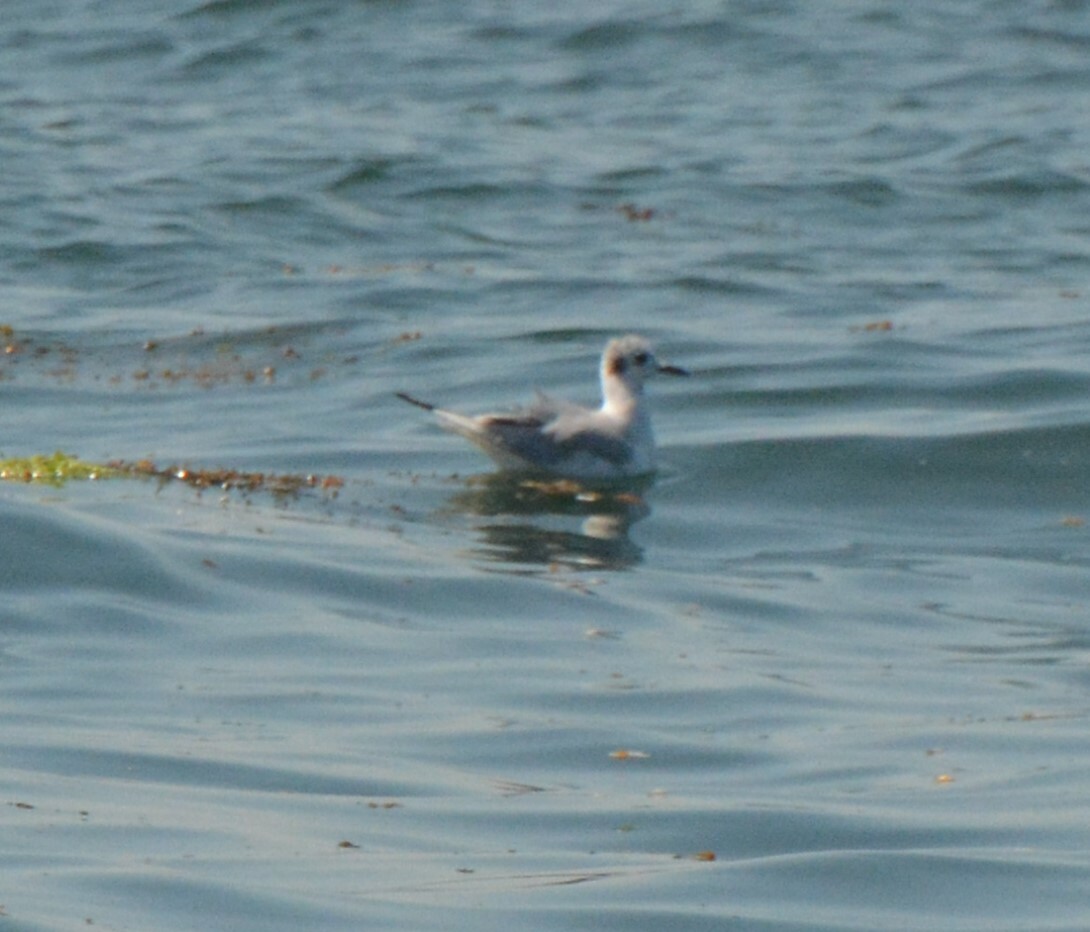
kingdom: Animalia
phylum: Chordata
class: Aves
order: Charadriiformes
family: Laridae
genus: Chroicocephalus
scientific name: Chroicocephalus philadelphia
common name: Bonaparte's gull
